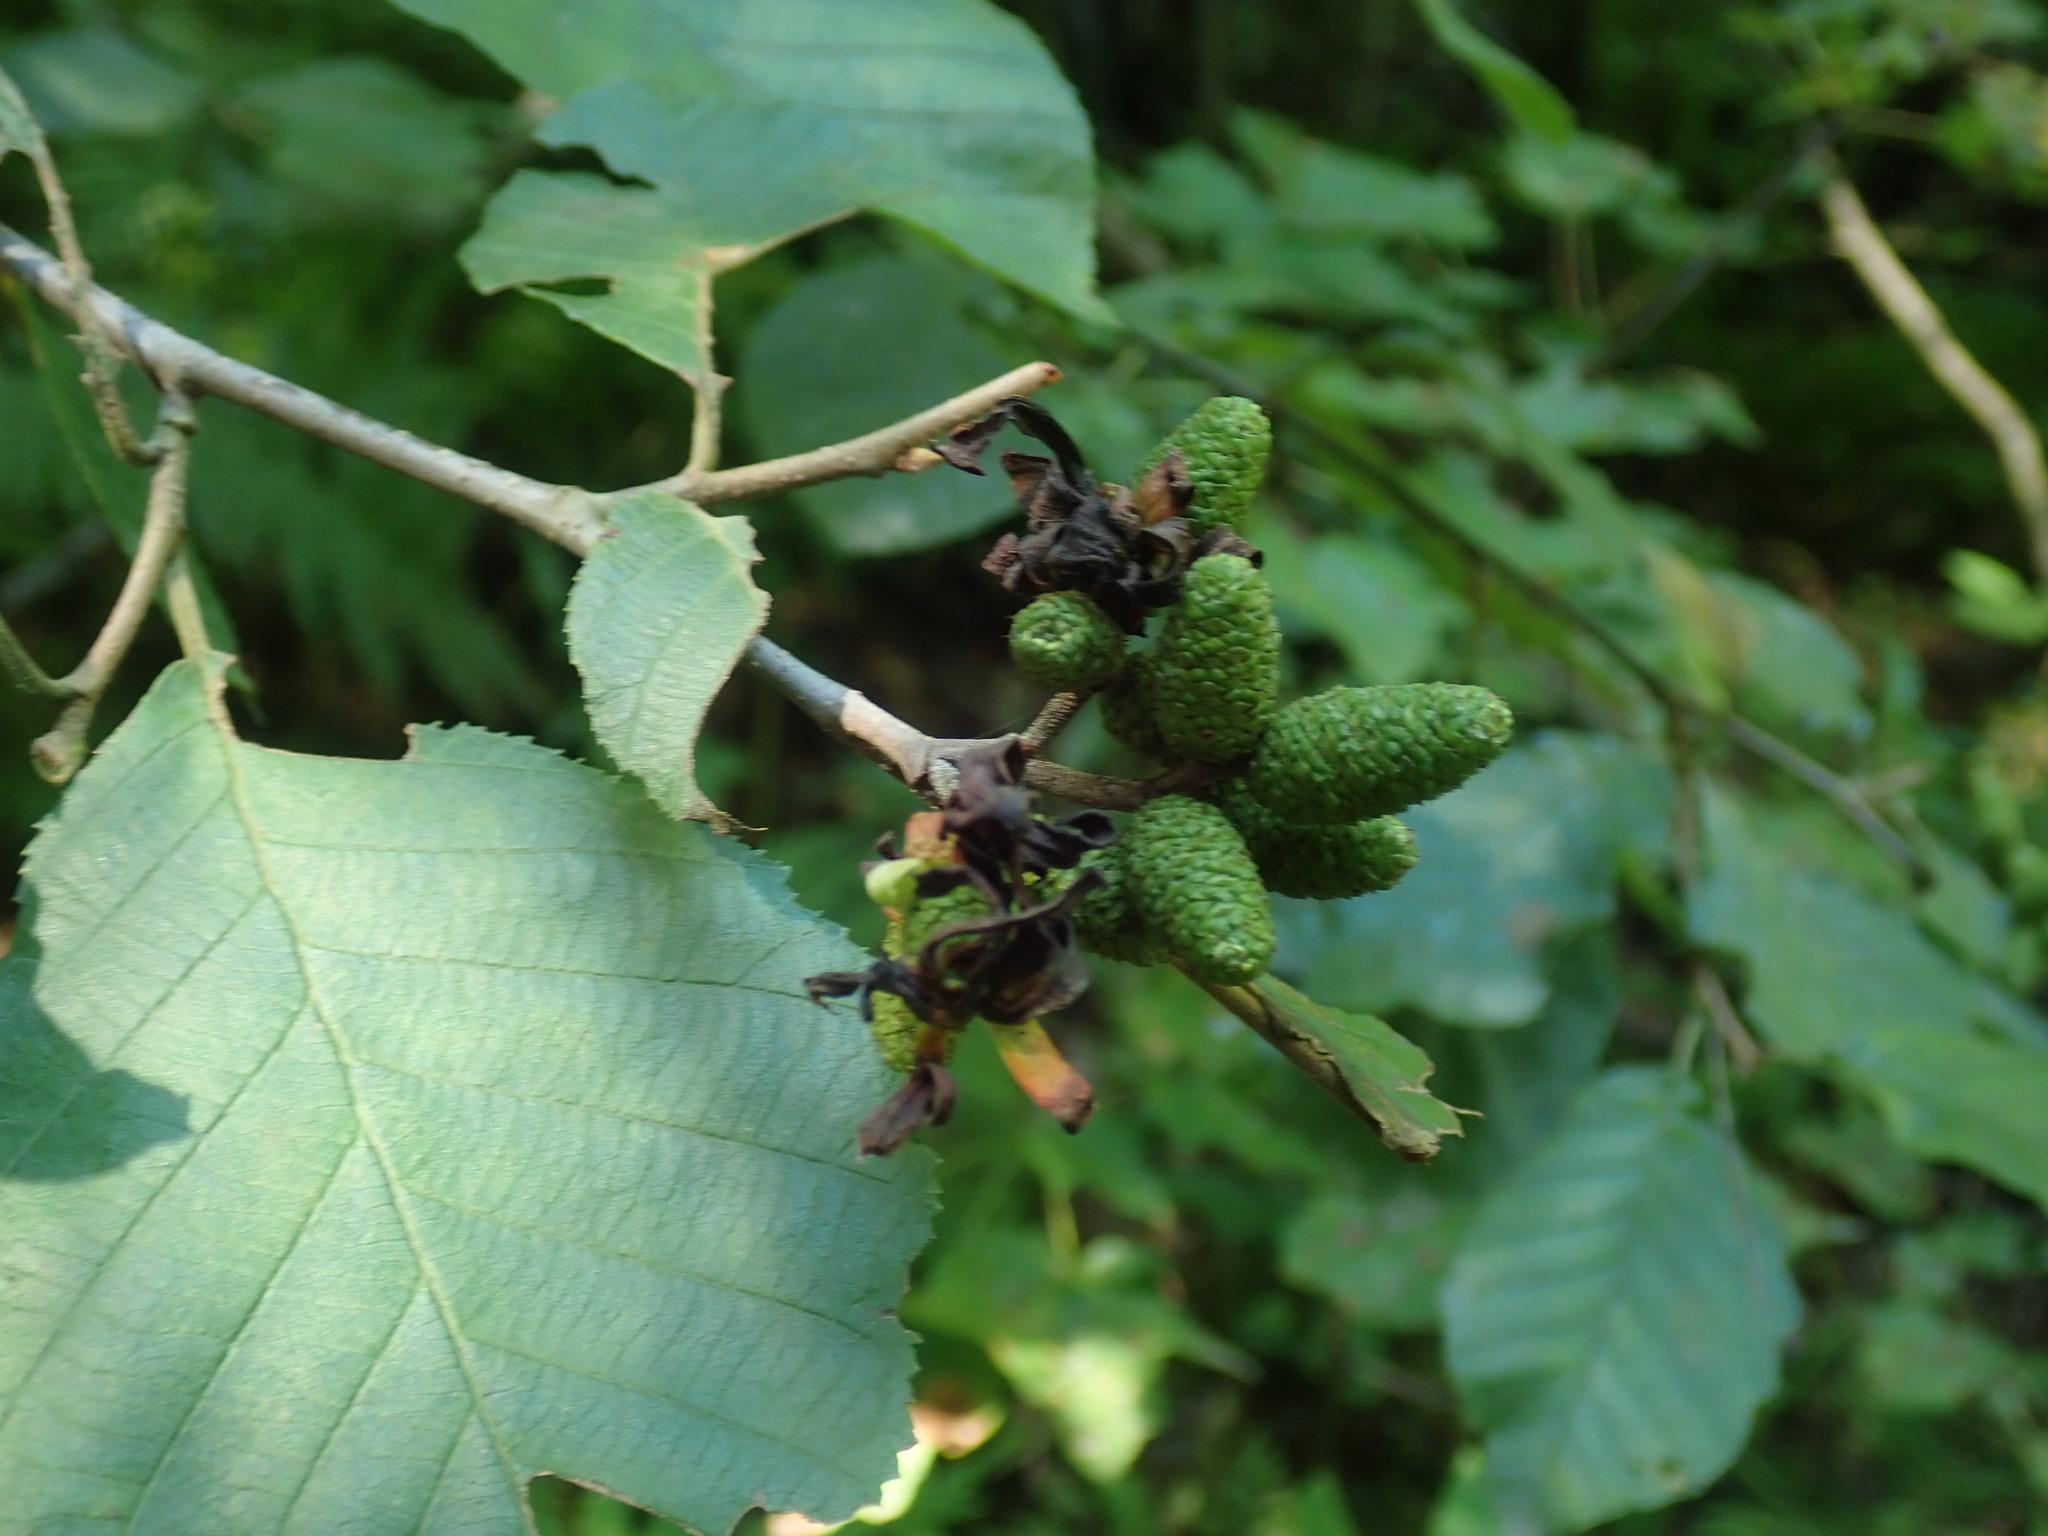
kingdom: Fungi
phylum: Ascomycota
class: Taphrinomycetes
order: Taphrinales
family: Taphrinaceae
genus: Taphrina
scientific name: Taphrina robinsoniana
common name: Eastern american alder tongue gall fungus
